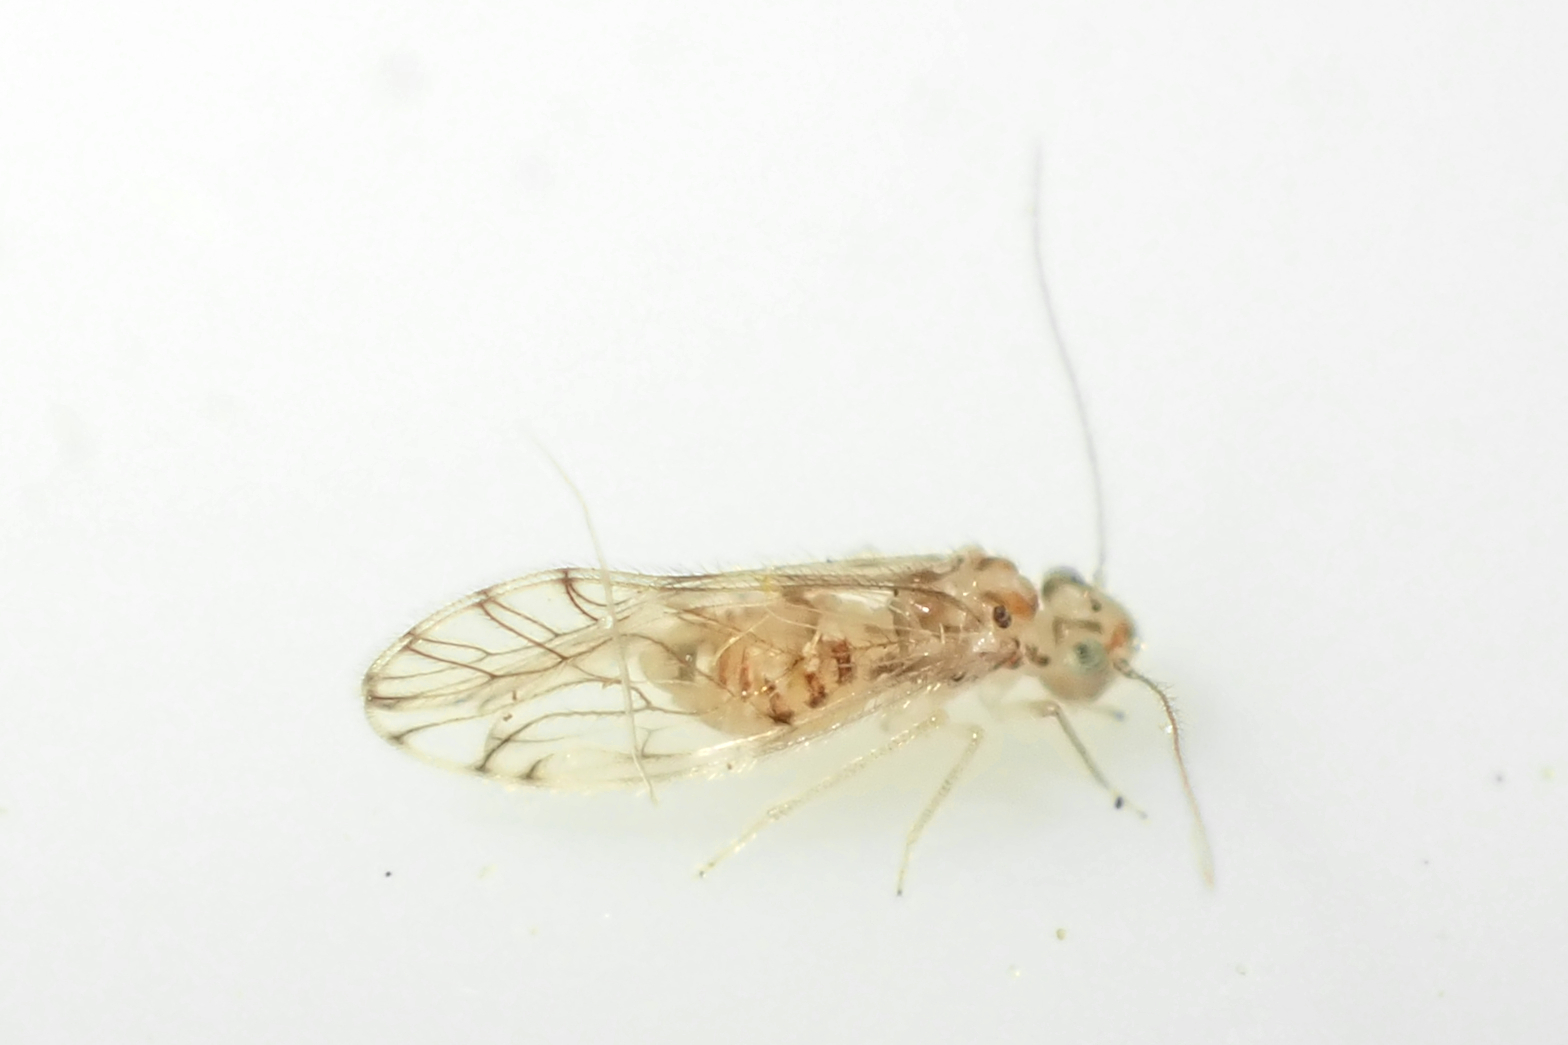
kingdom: Animalia
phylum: Arthropoda
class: Insecta
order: Psocodea
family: Pseudocaeciliidae
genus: Lobocaecilius
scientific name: Lobocaecilius monicus
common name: Barklice
